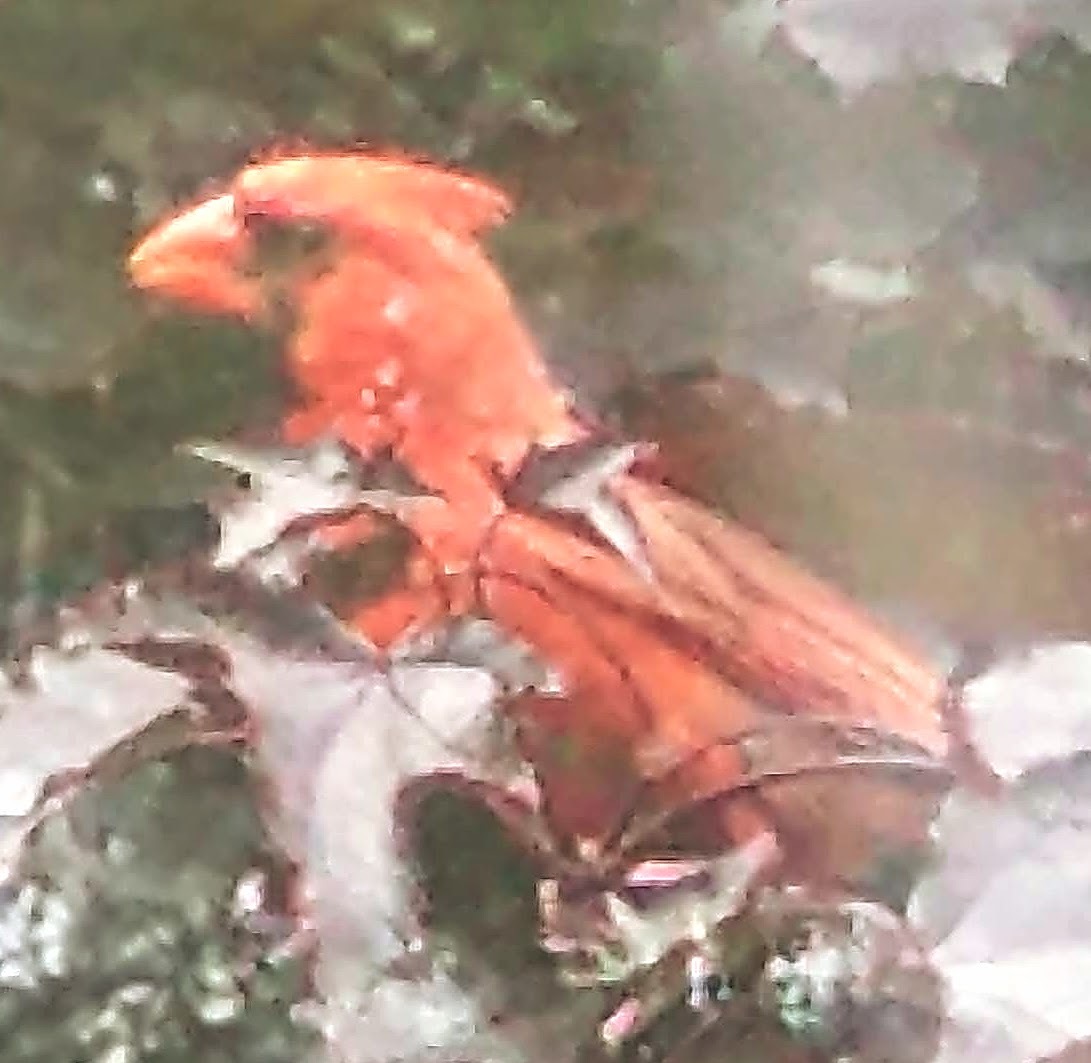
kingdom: Animalia
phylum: Chordata
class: Aves
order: Passeriformes
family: Cardinalidae
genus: Cardinalis
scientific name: Cardinalis cardinalis
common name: Northern cardinal
